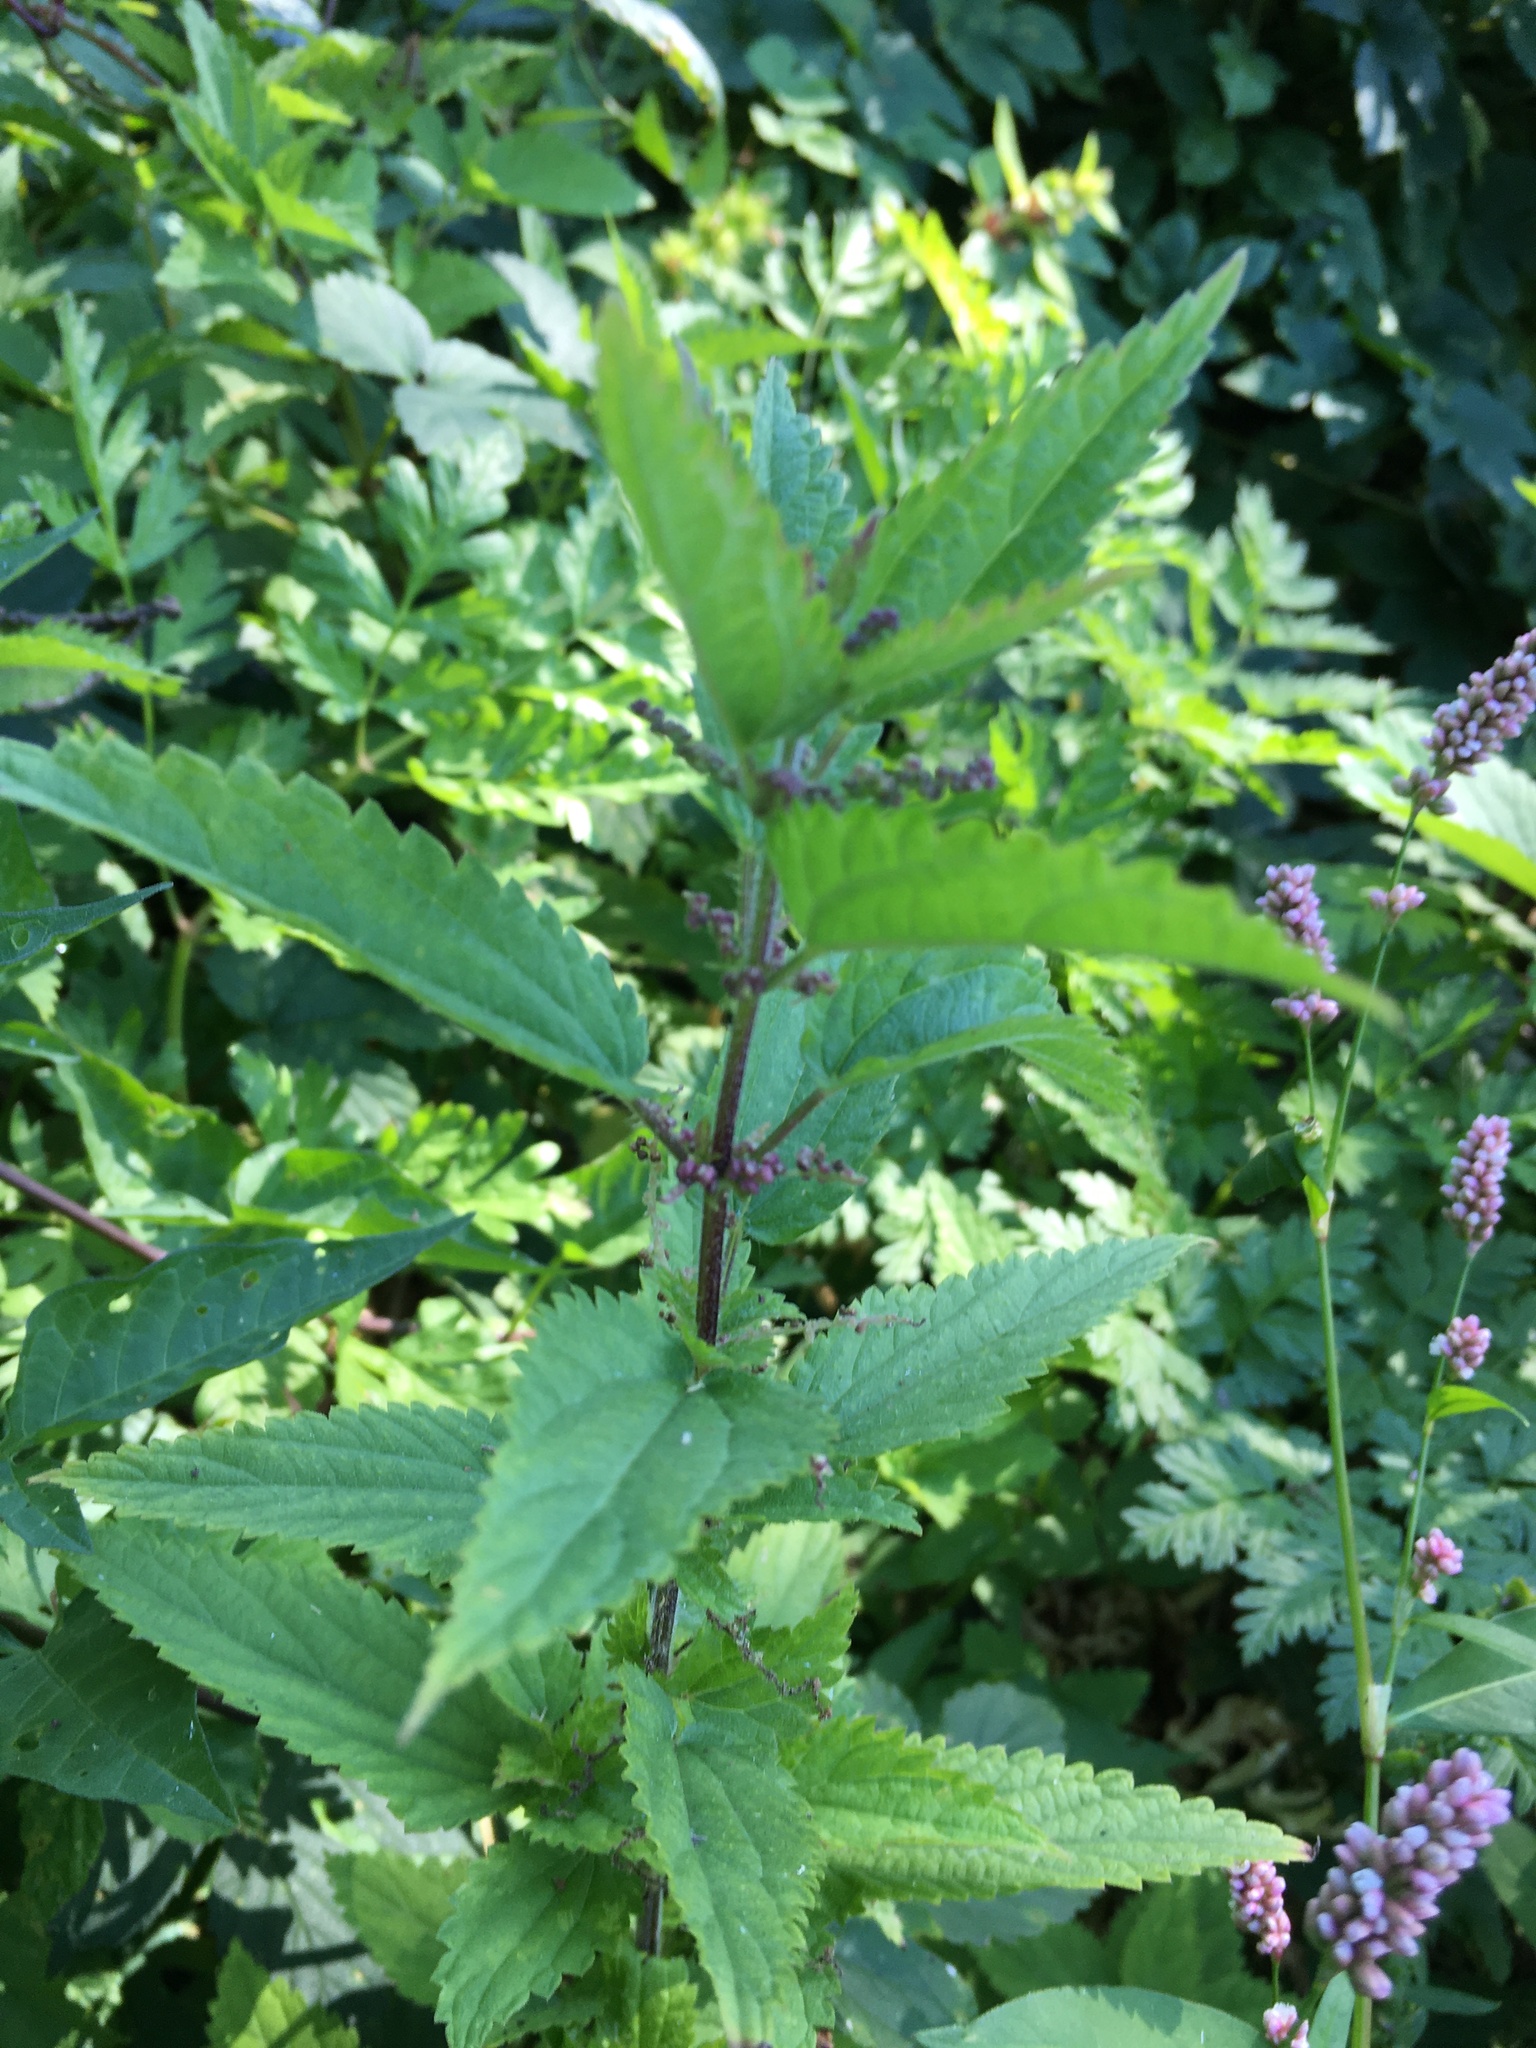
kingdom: Plantae
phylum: Tracheophyta
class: Magnoliopsida
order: Rosales
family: Urticaceae
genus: Urtica
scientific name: Urtica dioica
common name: Common nettle
